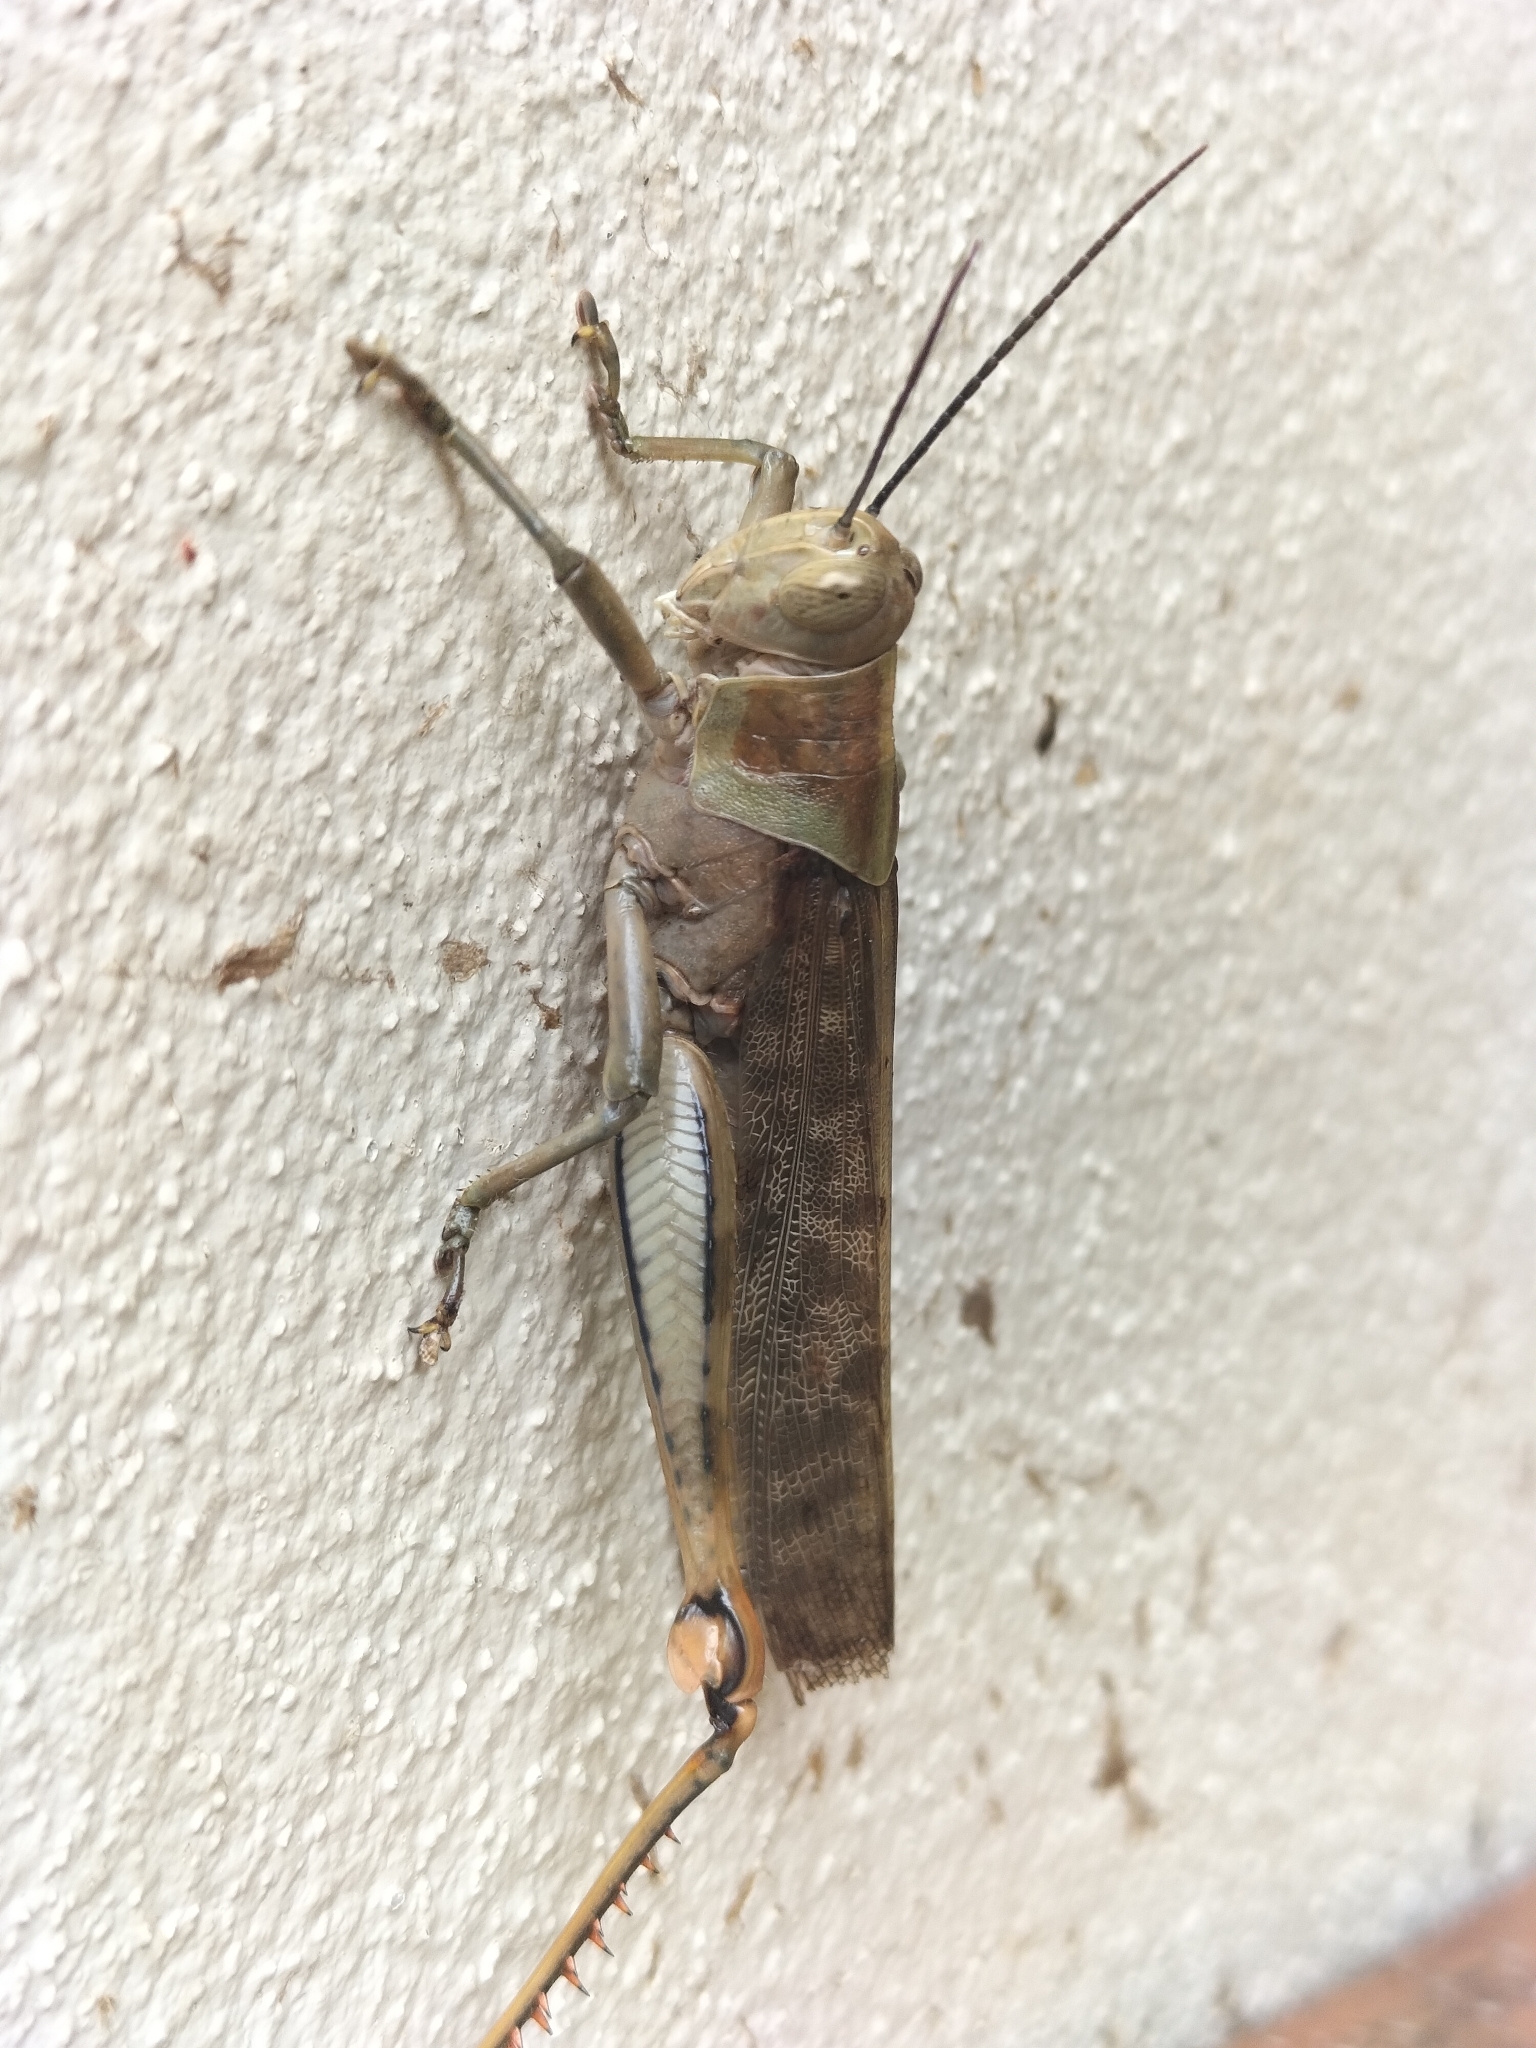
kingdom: Animalia
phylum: Arthropoda
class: Insecta
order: Orthoptera
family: Acrididae
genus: Valanga
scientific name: Valanga irregularis
